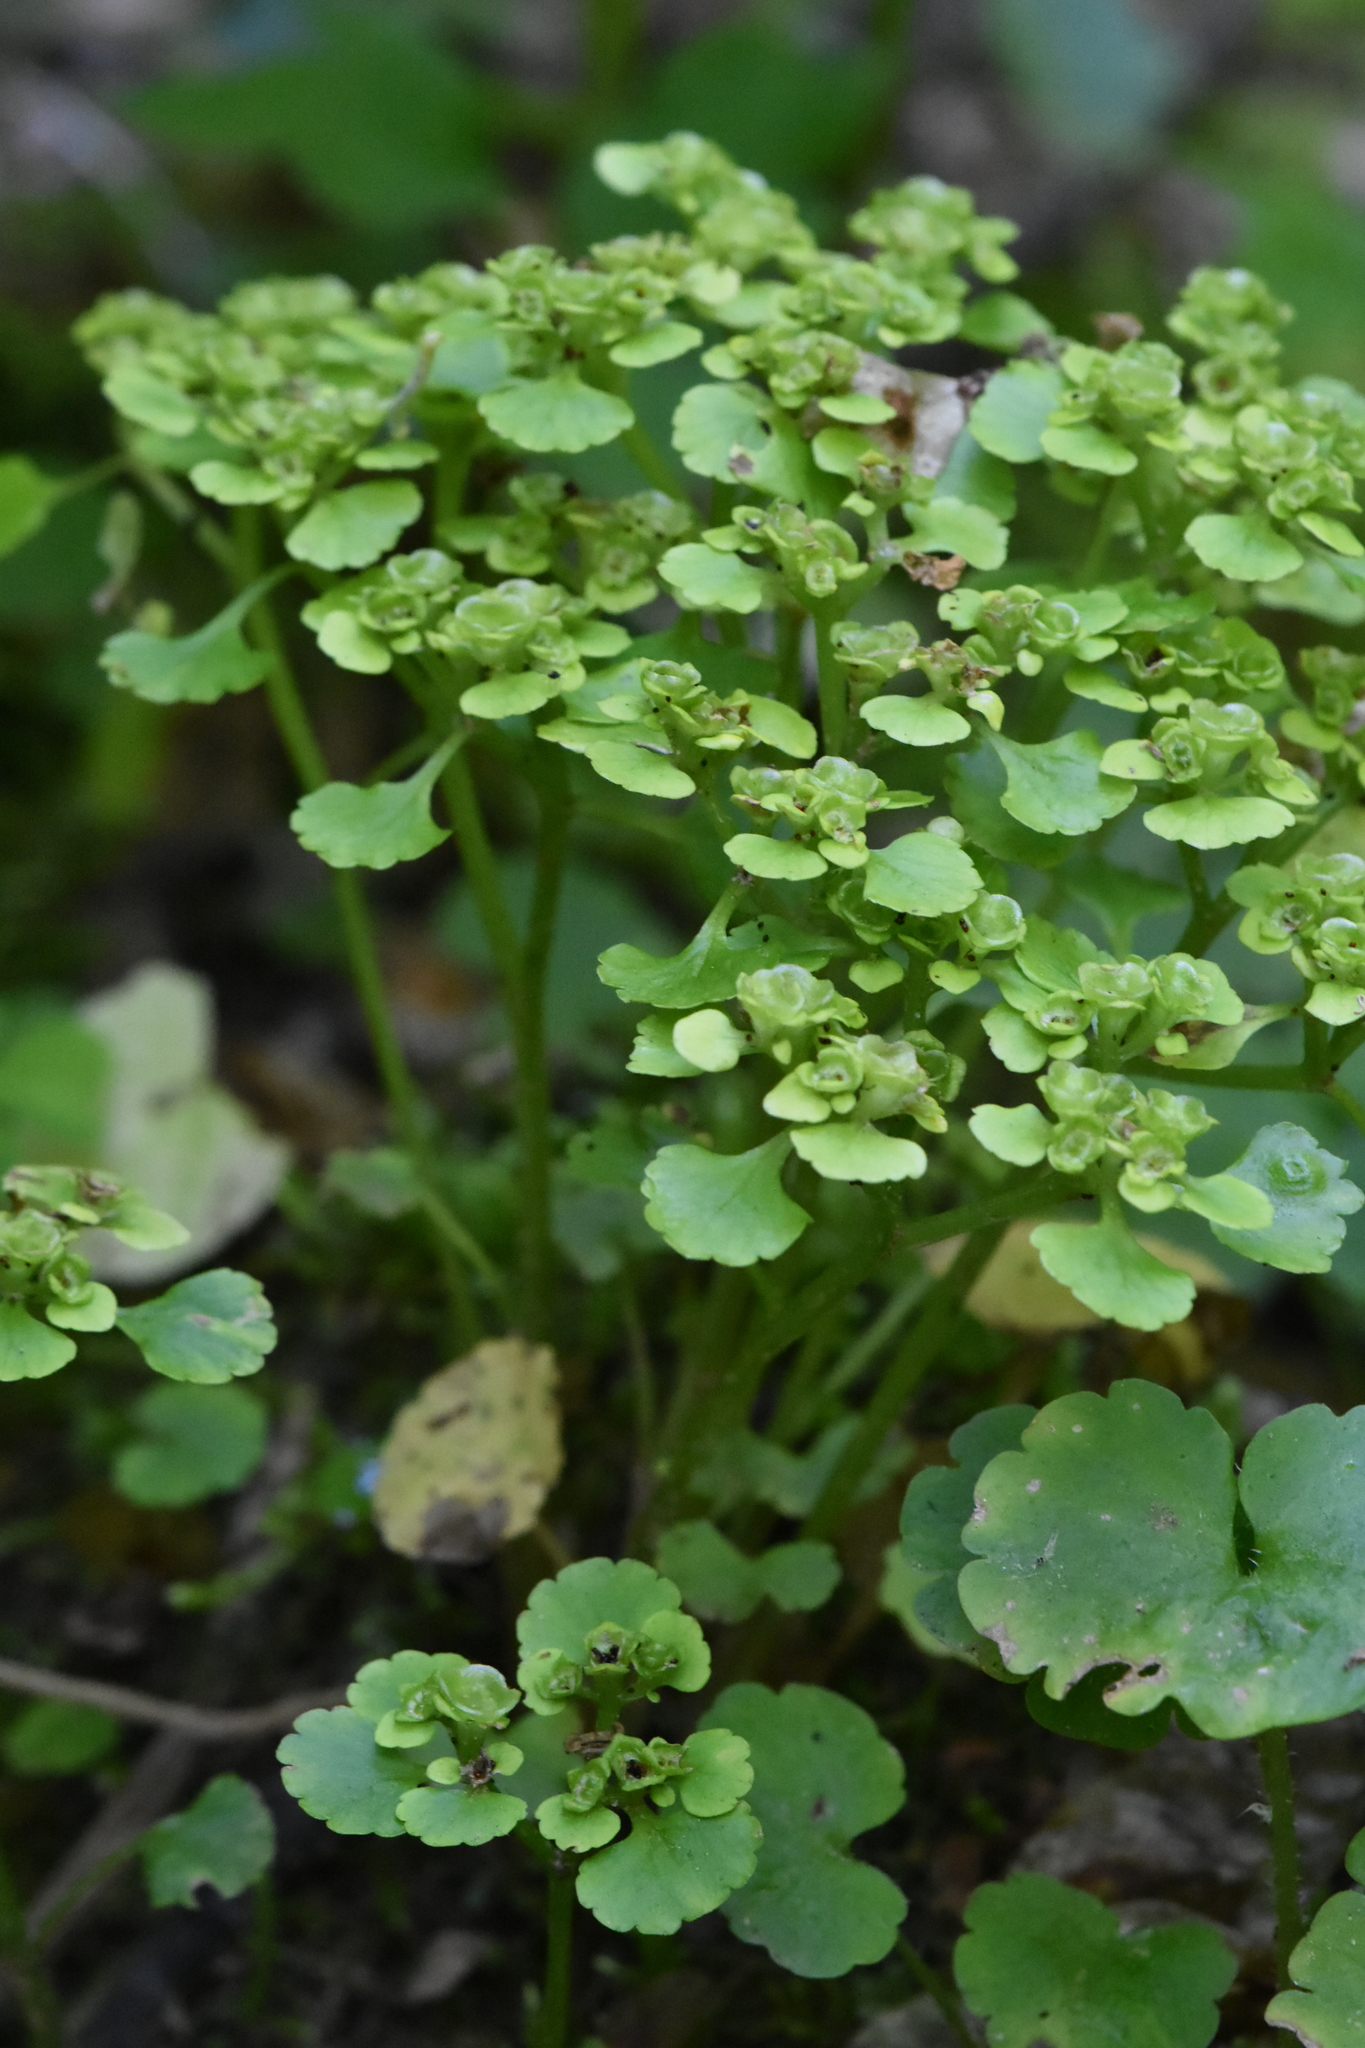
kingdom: Plantae
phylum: Tracheophyta
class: Magnoliopsida
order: Saxifragales
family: Saxifragaceae
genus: Chrysosplenium
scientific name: Chrysosplenium alternifolium
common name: Alternate-leaved golden-saxifrage
